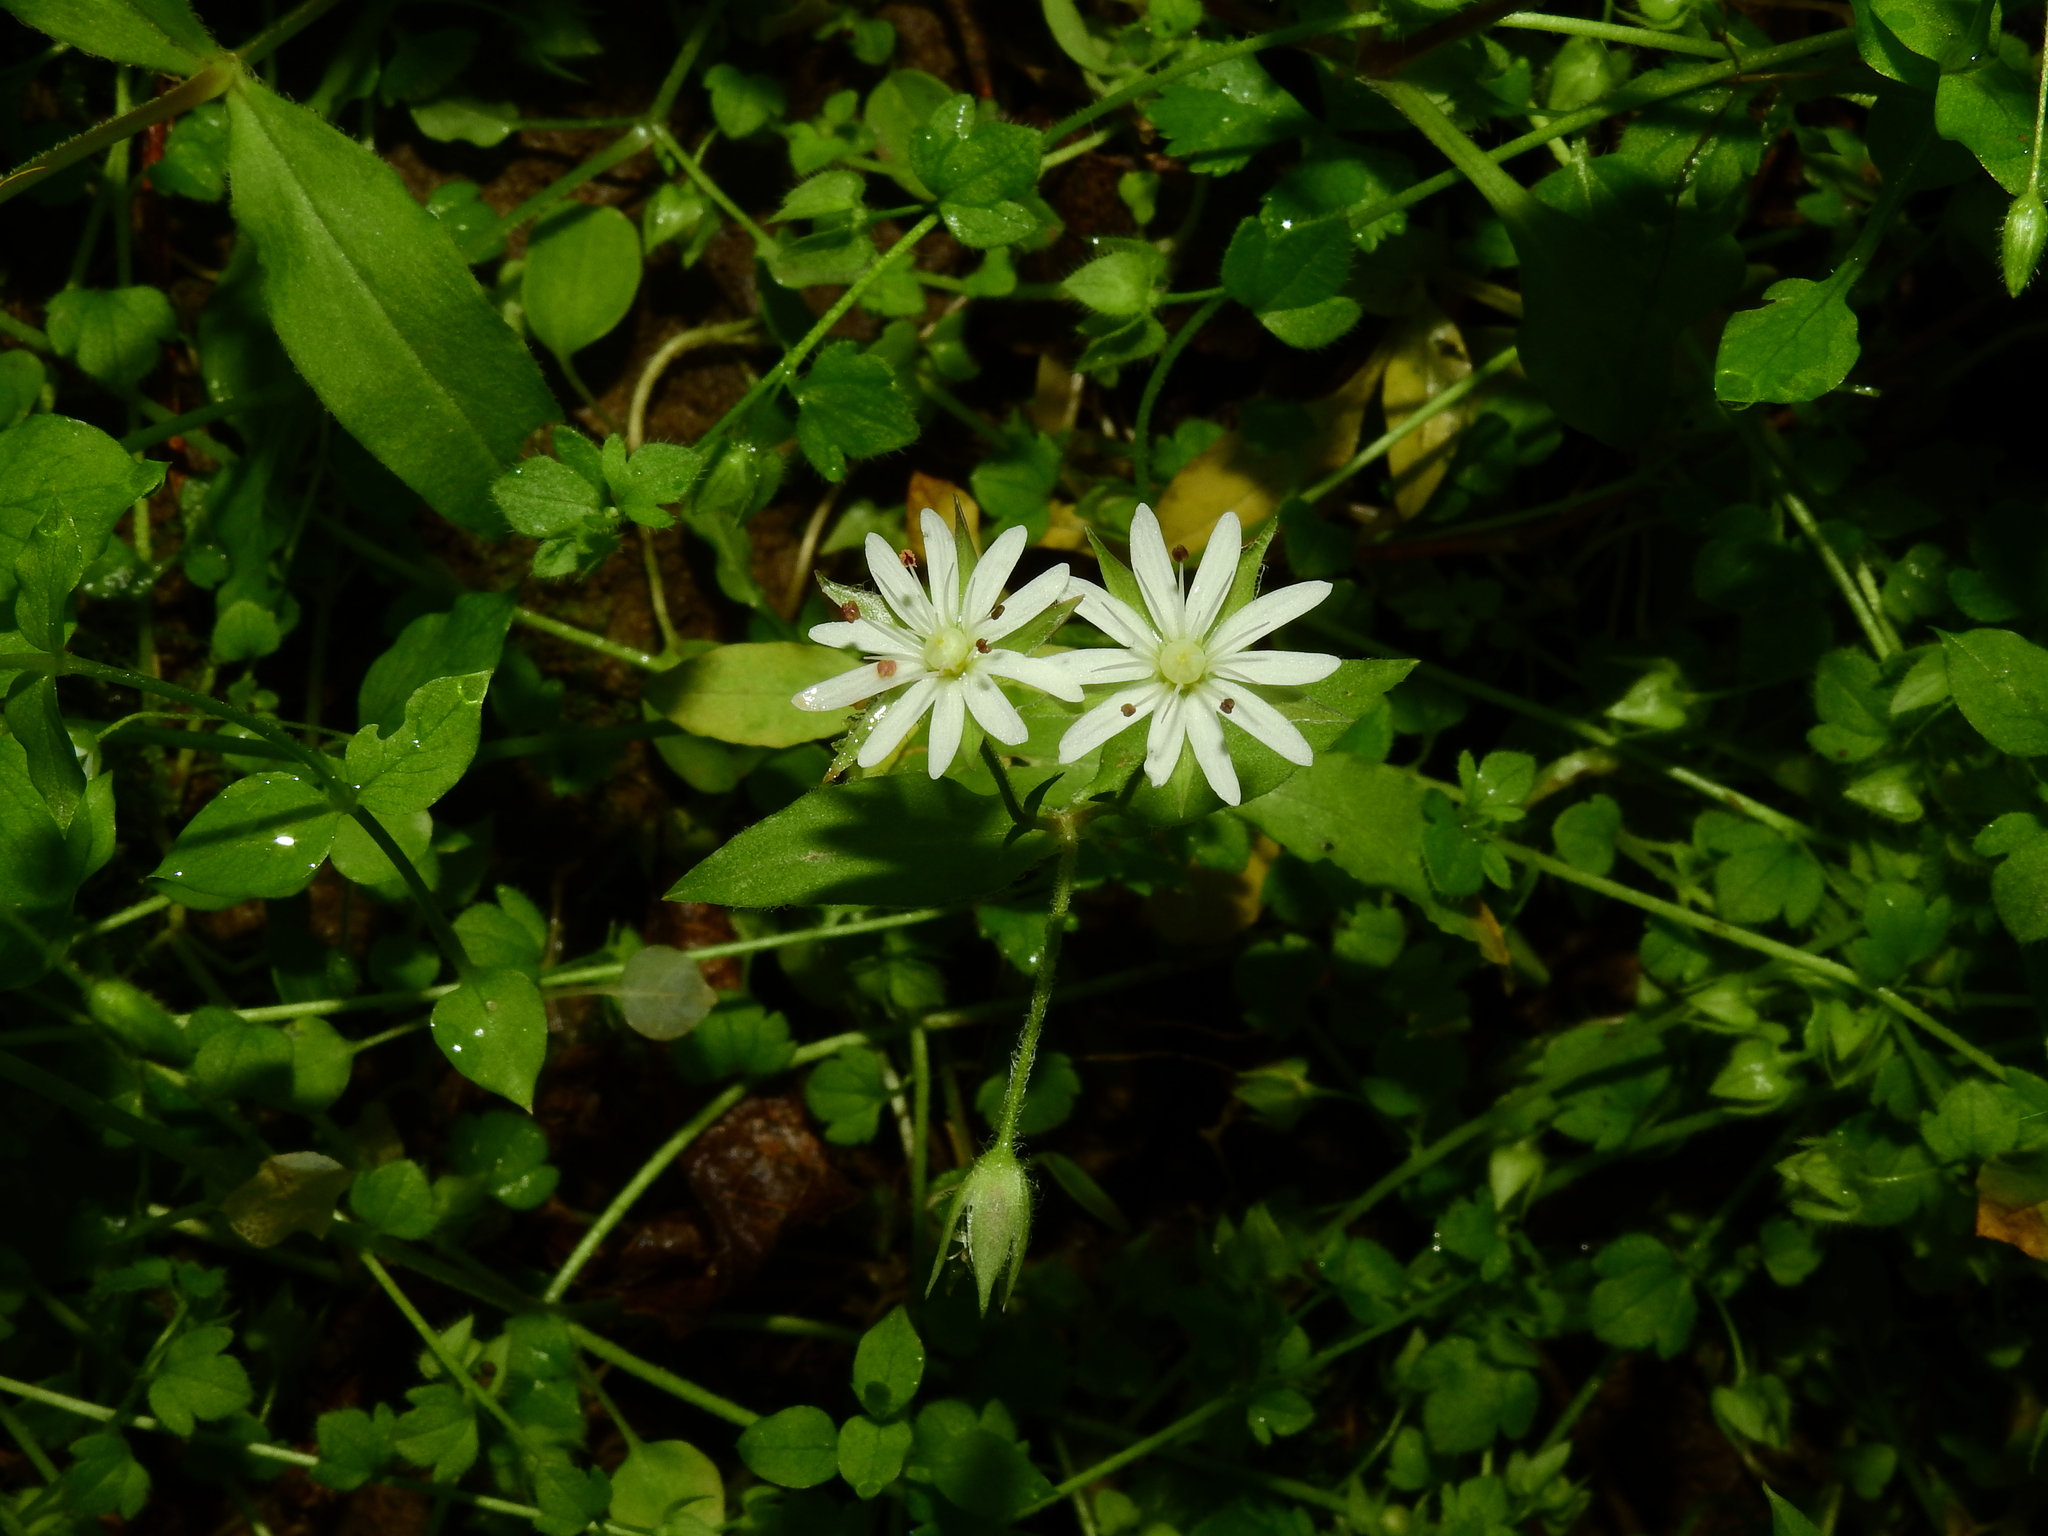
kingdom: Plantae
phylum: Tracheophyta
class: Magnoliopsida
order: Caryophyllales
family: Caryophyllaceae
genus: Stellaria
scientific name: Stellaria pubera
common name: Star chickweed
